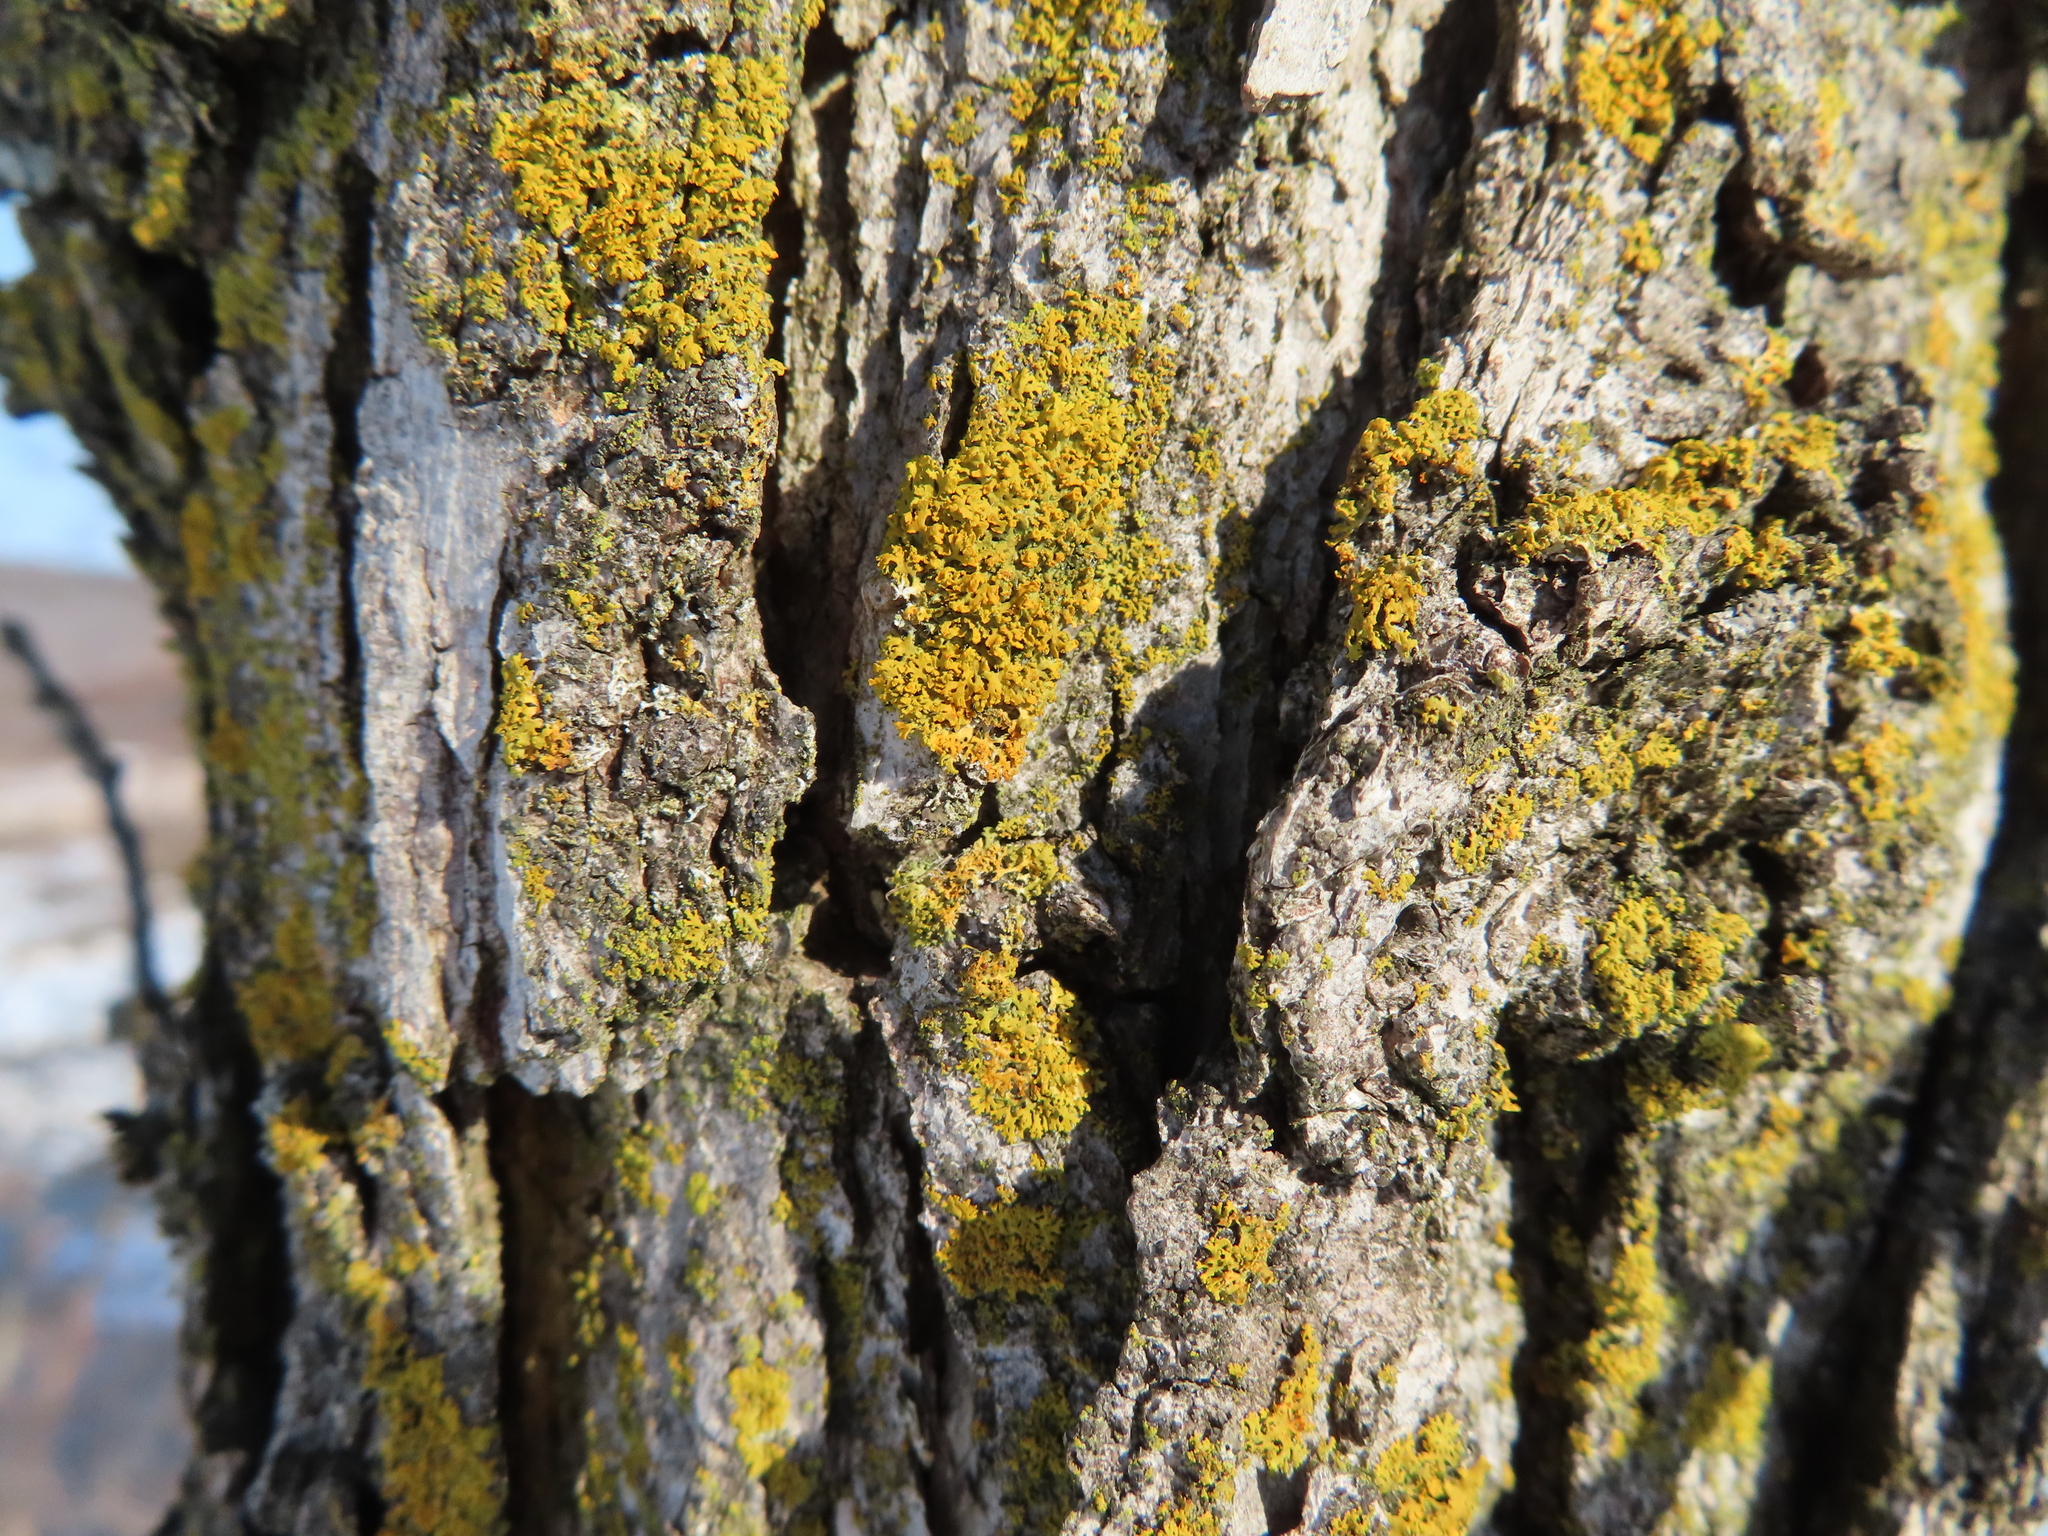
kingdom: Fungi
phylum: Ascomycota
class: Lecanoromycetes
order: Teloschistales
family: Teloschistaceae
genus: Gallowayella
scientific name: Gallowayella weberi
